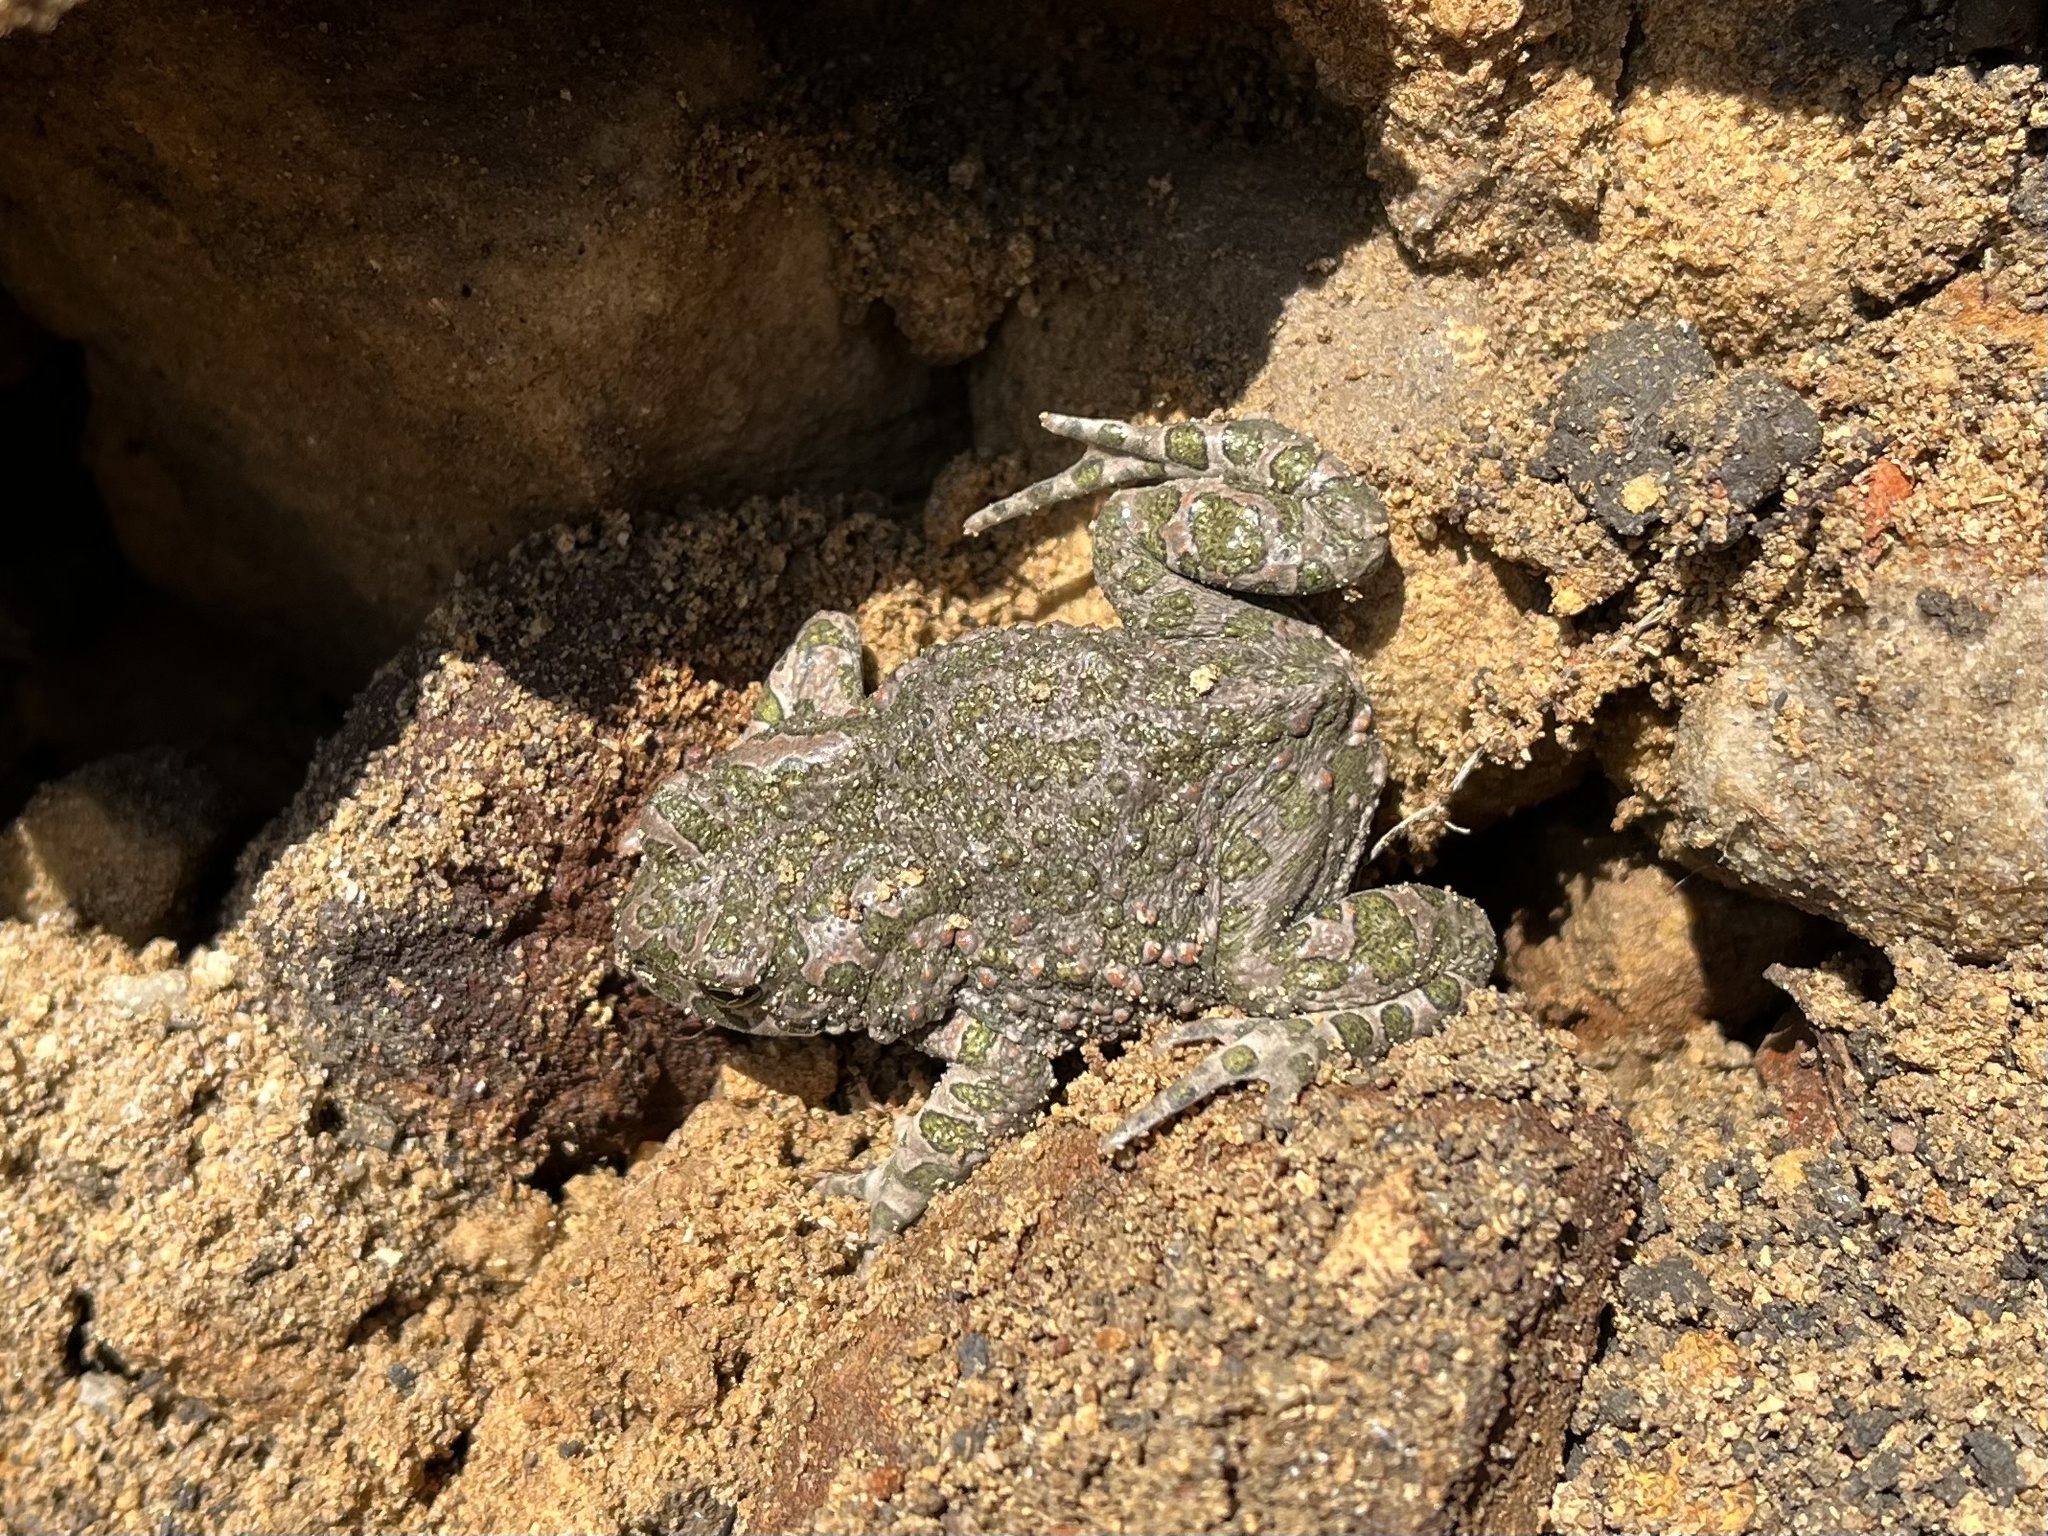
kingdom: Animalia
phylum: Chordata
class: Amphibia
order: Anura
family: Bufonidae
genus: Bufotes
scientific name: Bufotes viridis
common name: European green toad
